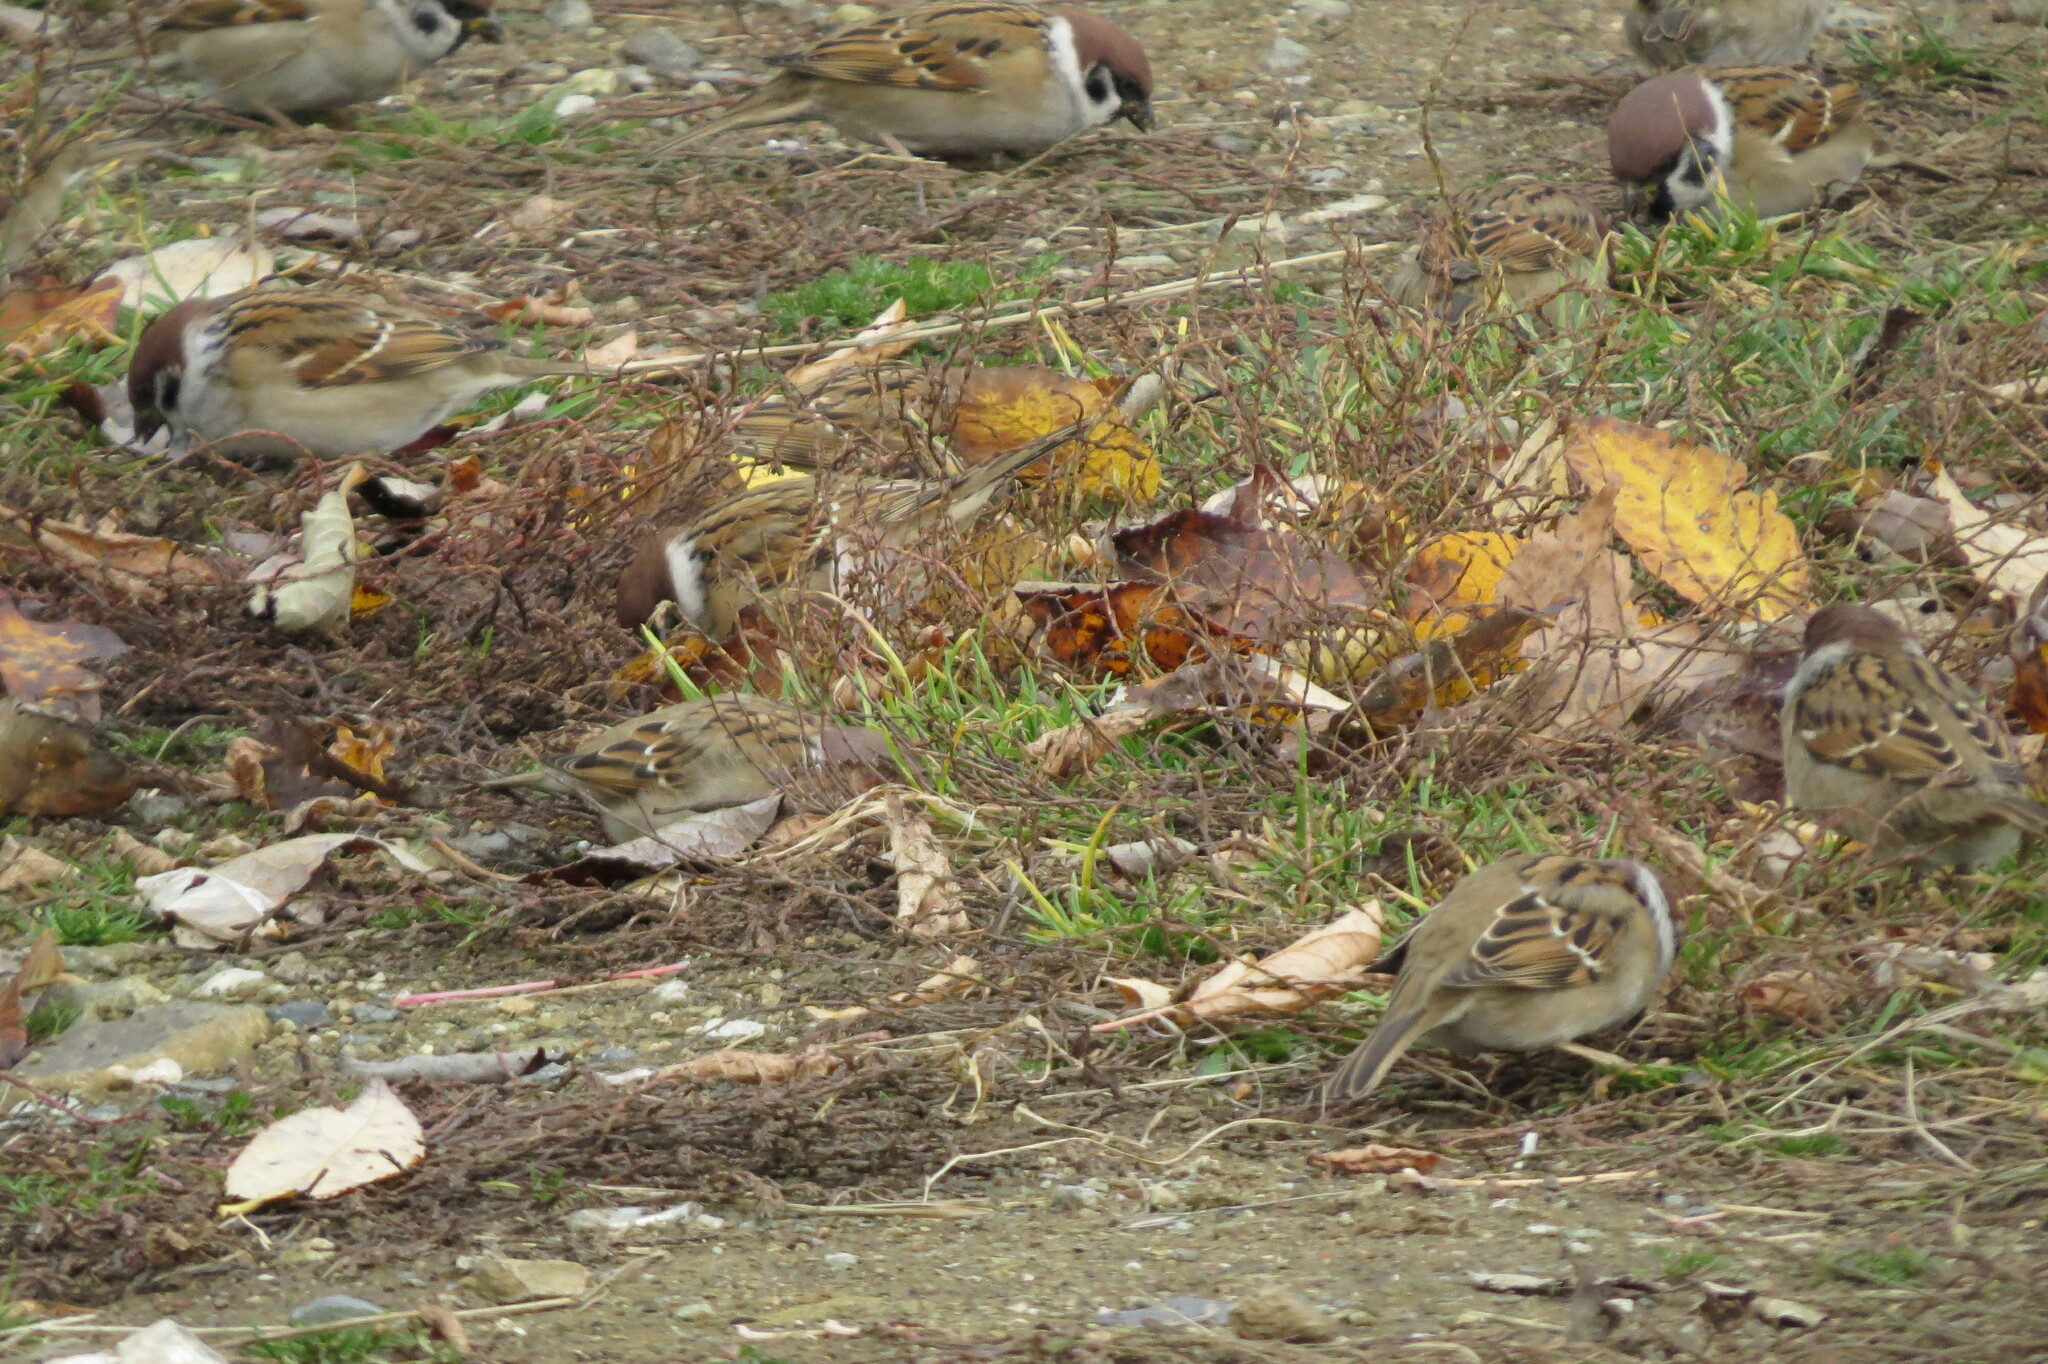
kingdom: Animalia
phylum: Chordata
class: Aves
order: Passeriformes
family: Passeridae
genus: Passer
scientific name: Passer montanus
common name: Eurasian tree sparrow
